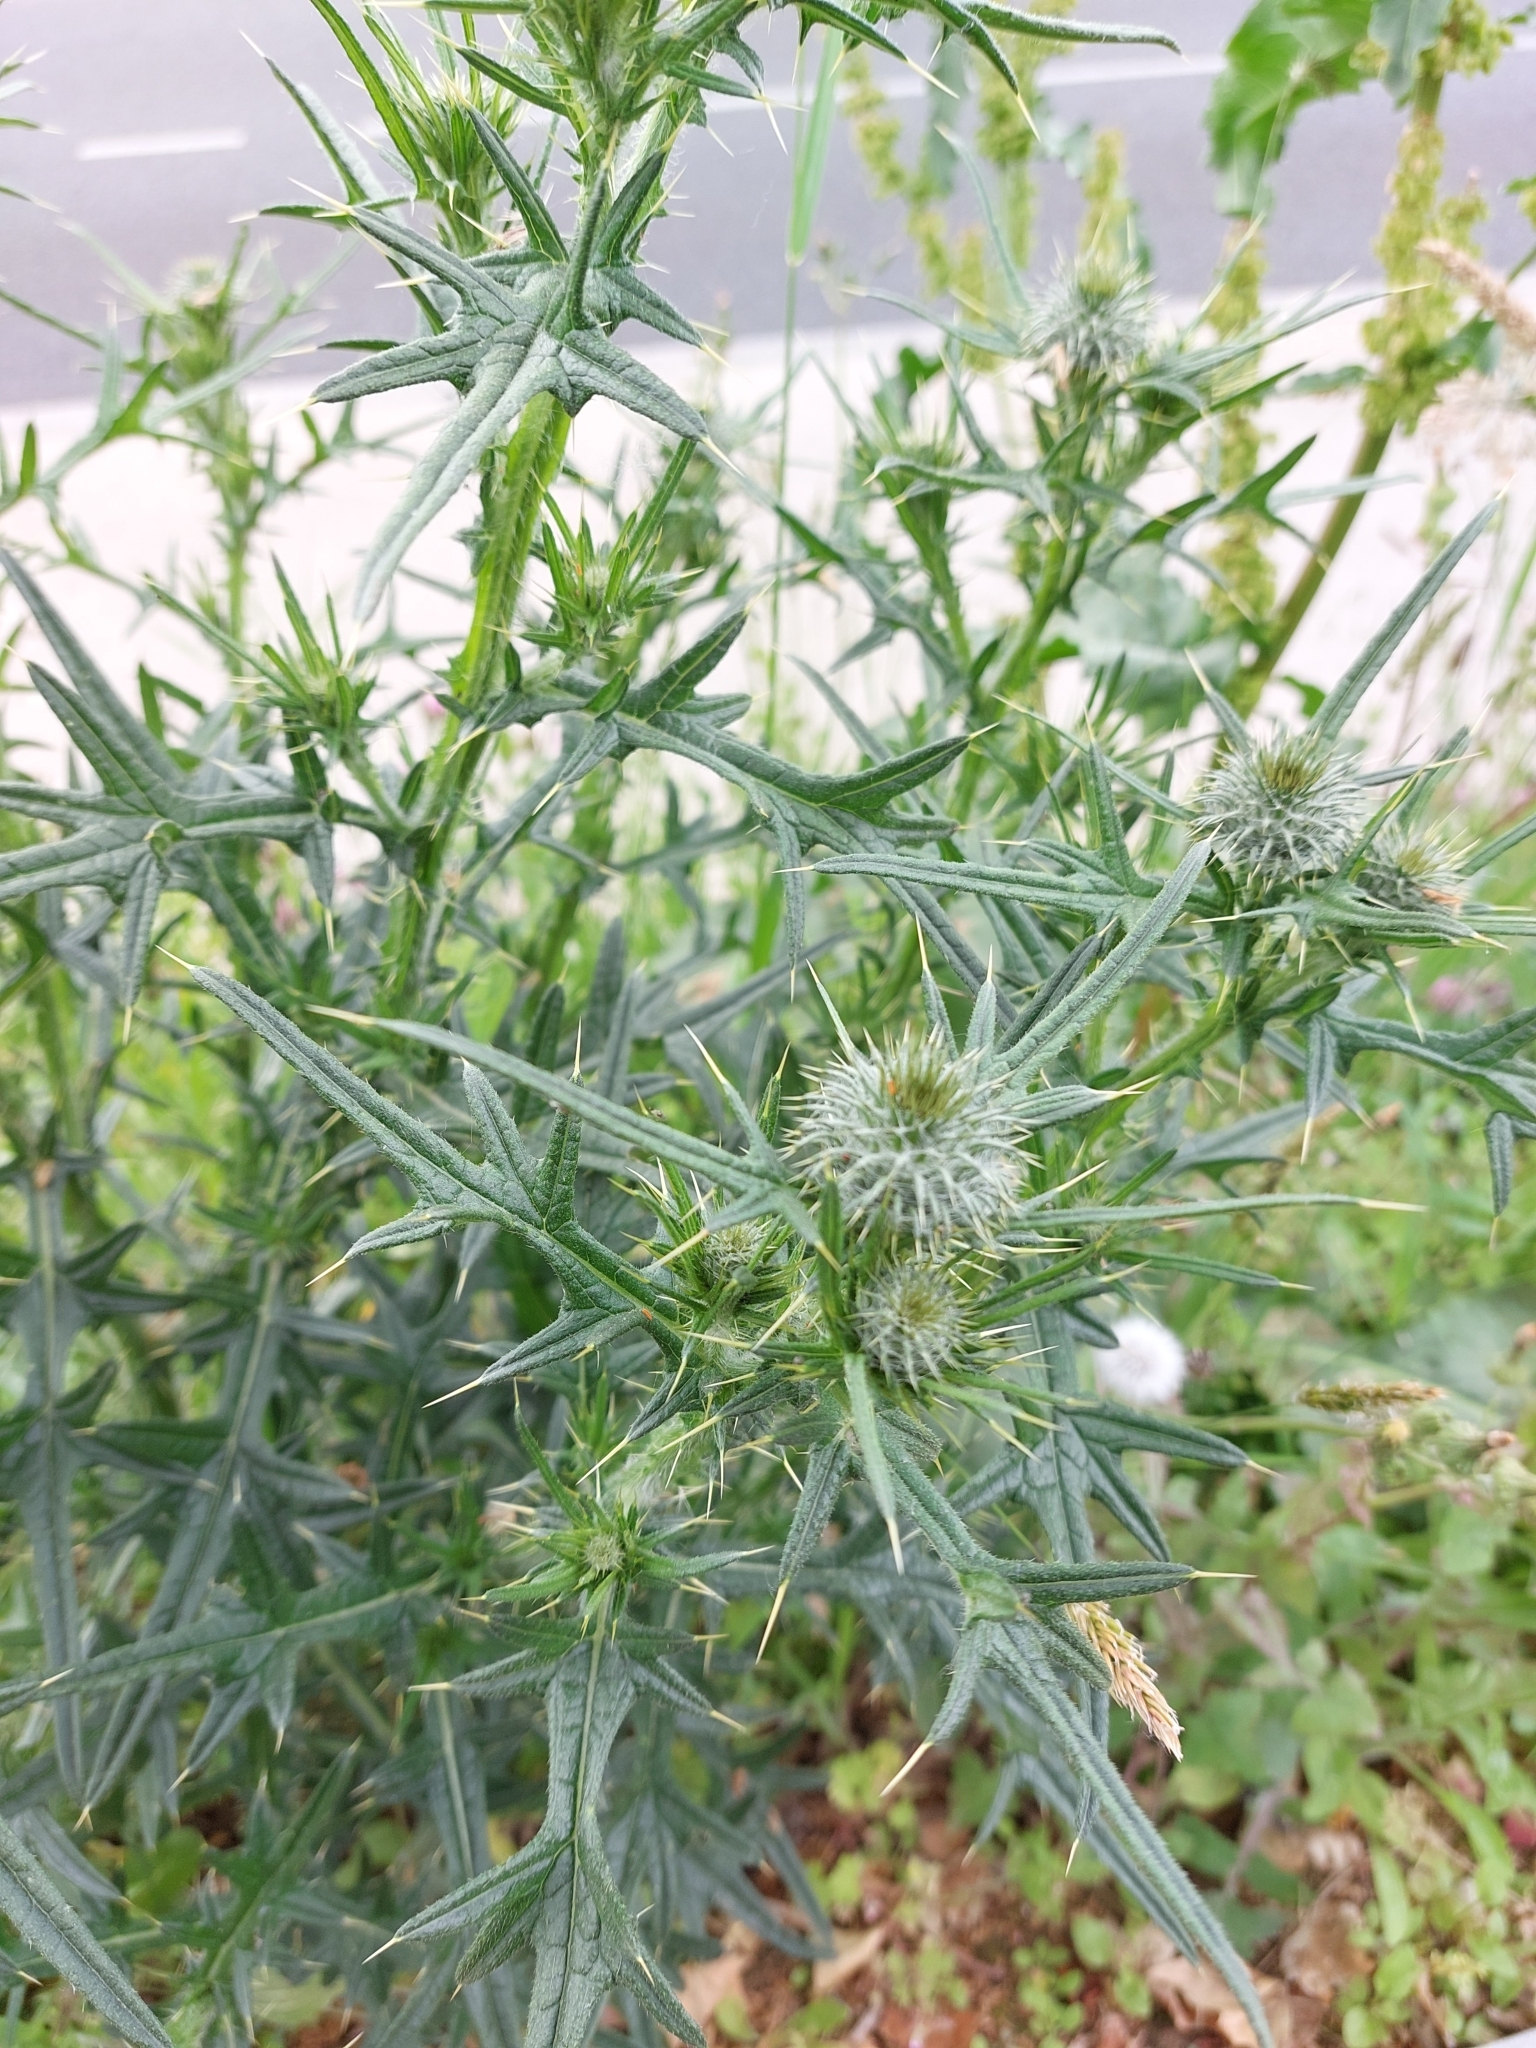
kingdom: Plantae
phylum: Tracheophyta
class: Magnoliopsida
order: Asterales
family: Asteraceae
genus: Cirsium
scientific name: Cirsium vulgare
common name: Bull thistle
